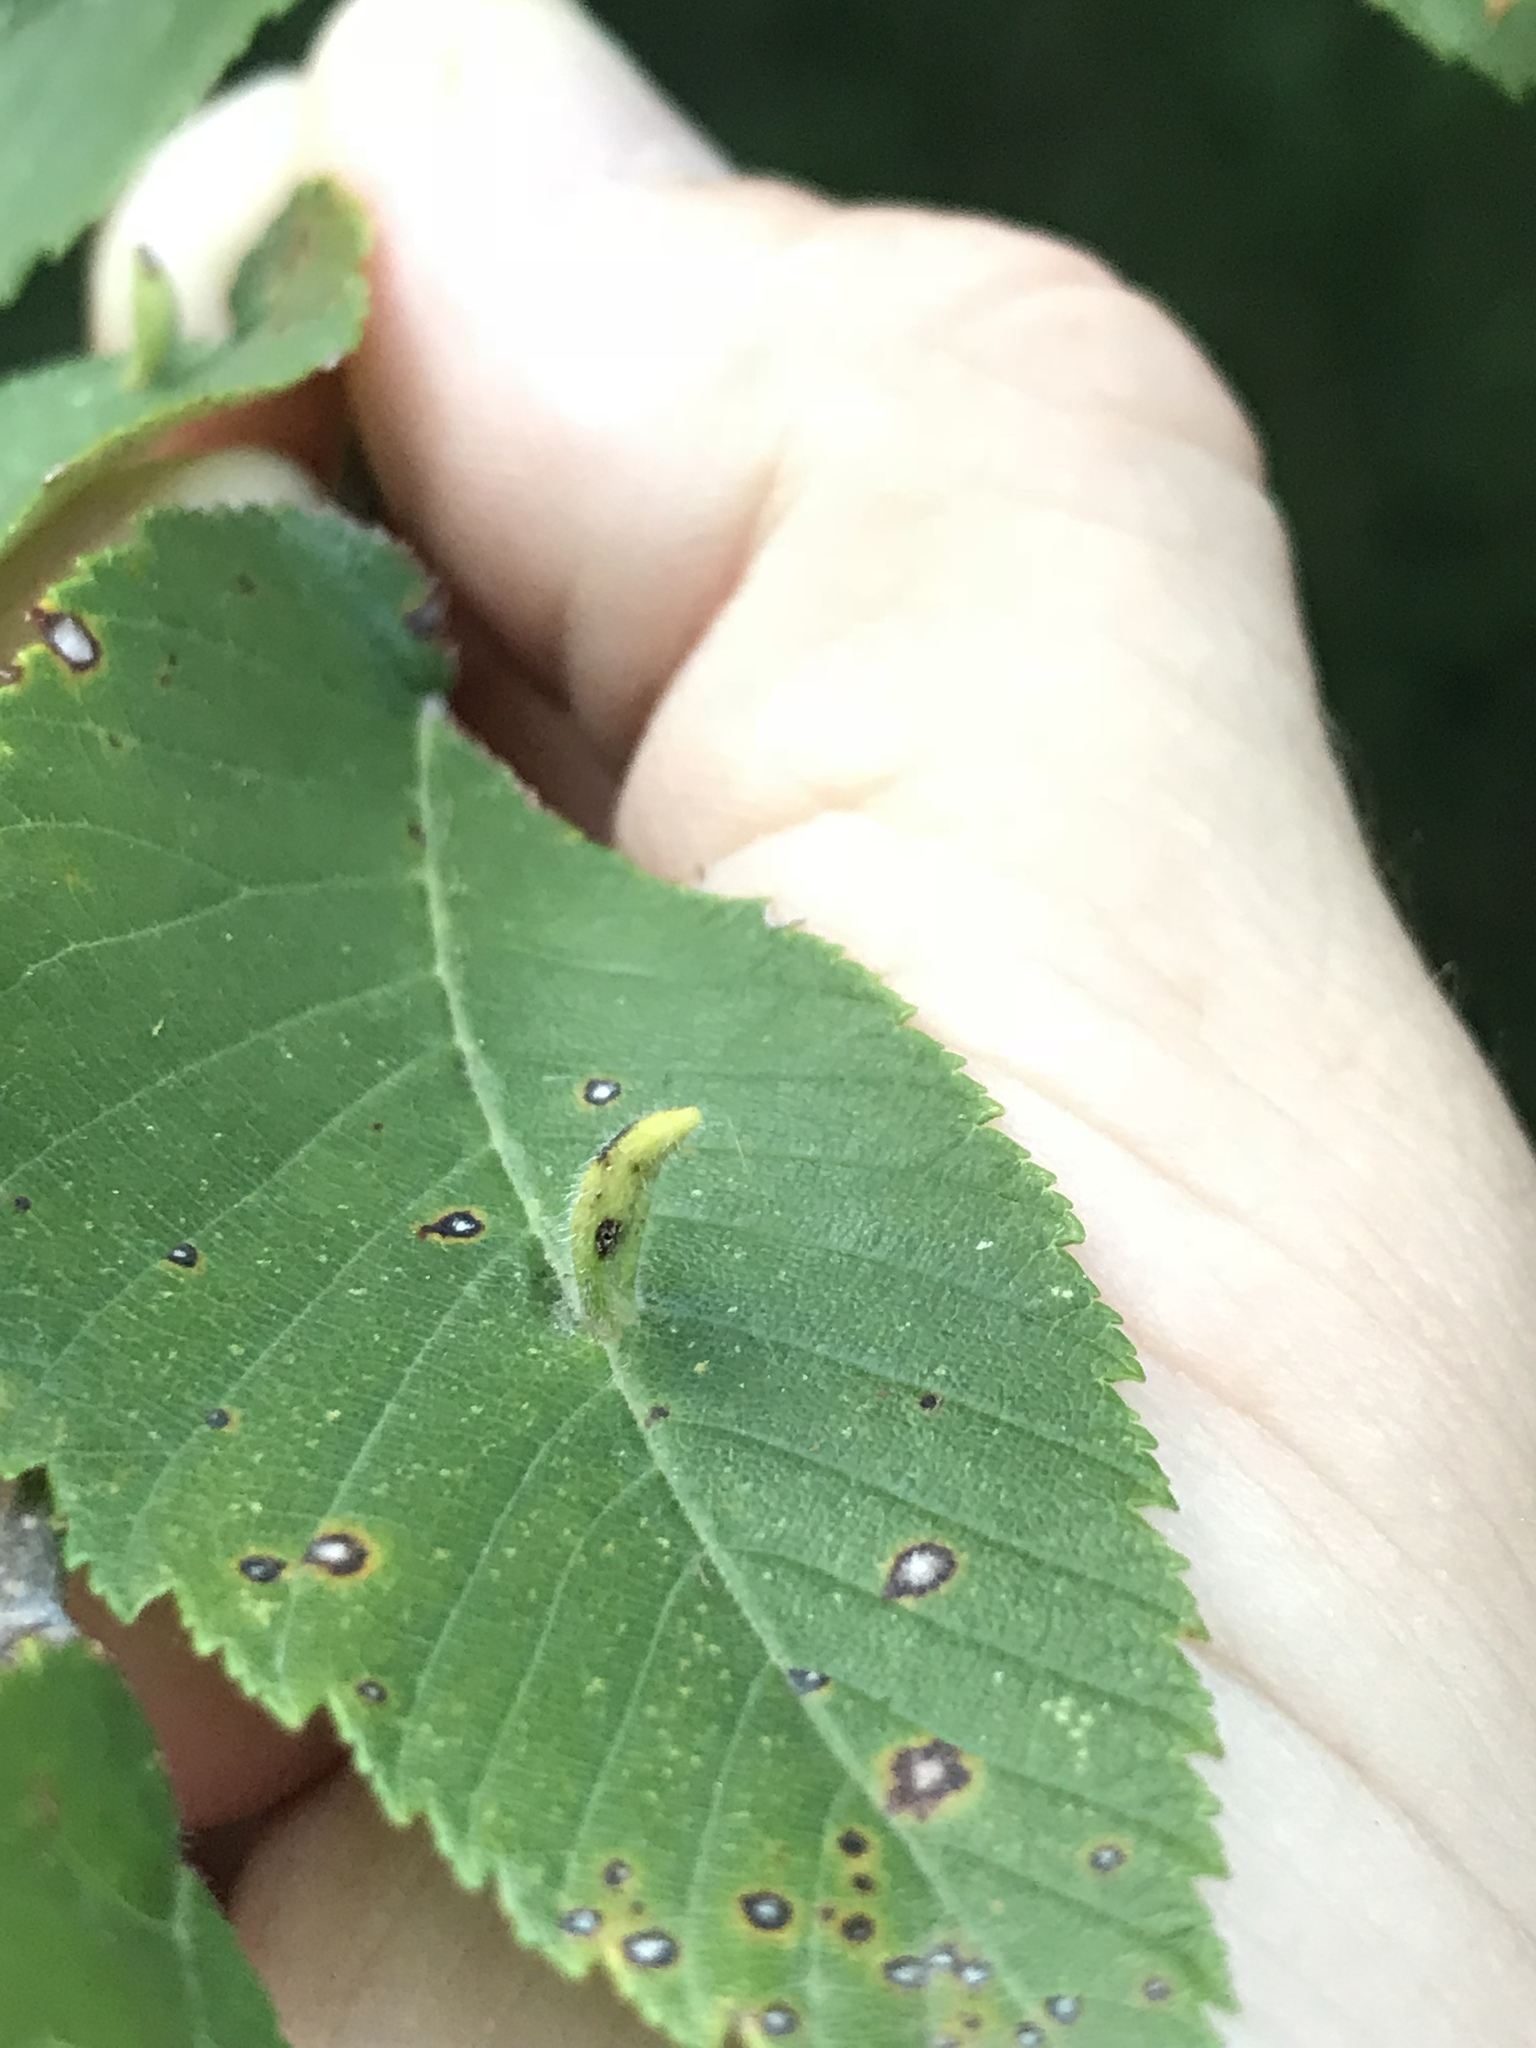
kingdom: Animalia
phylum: Arthropoda
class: Arachnida
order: Trombidiformes
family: Eriophyidae
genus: Aceria
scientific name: Aceria
